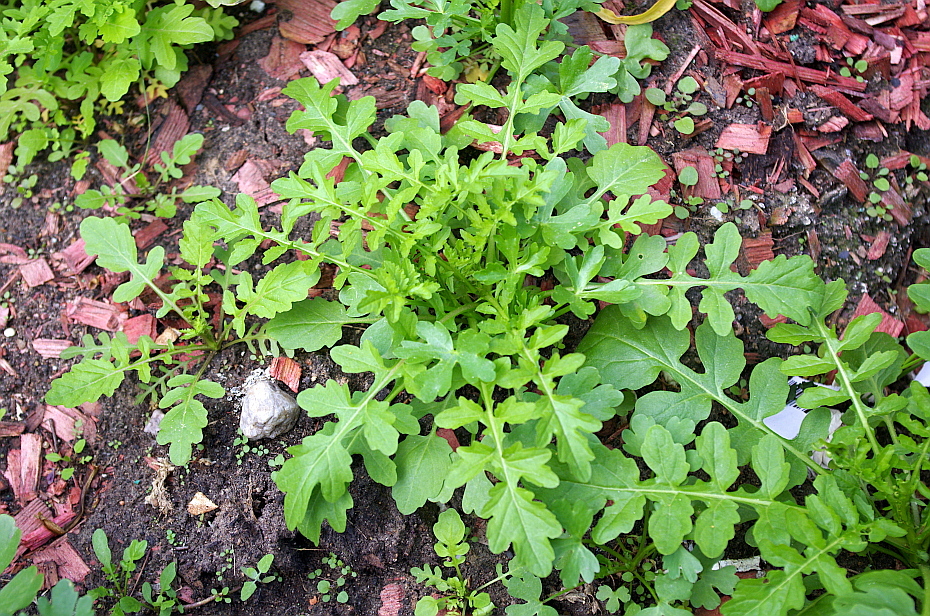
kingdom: Plantae
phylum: Tracheophyta
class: Magnoliopsida
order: Brassicales
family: Brassicaceae
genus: Rorippa
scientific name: Rorippa palustris
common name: Marsh yellow-cress
